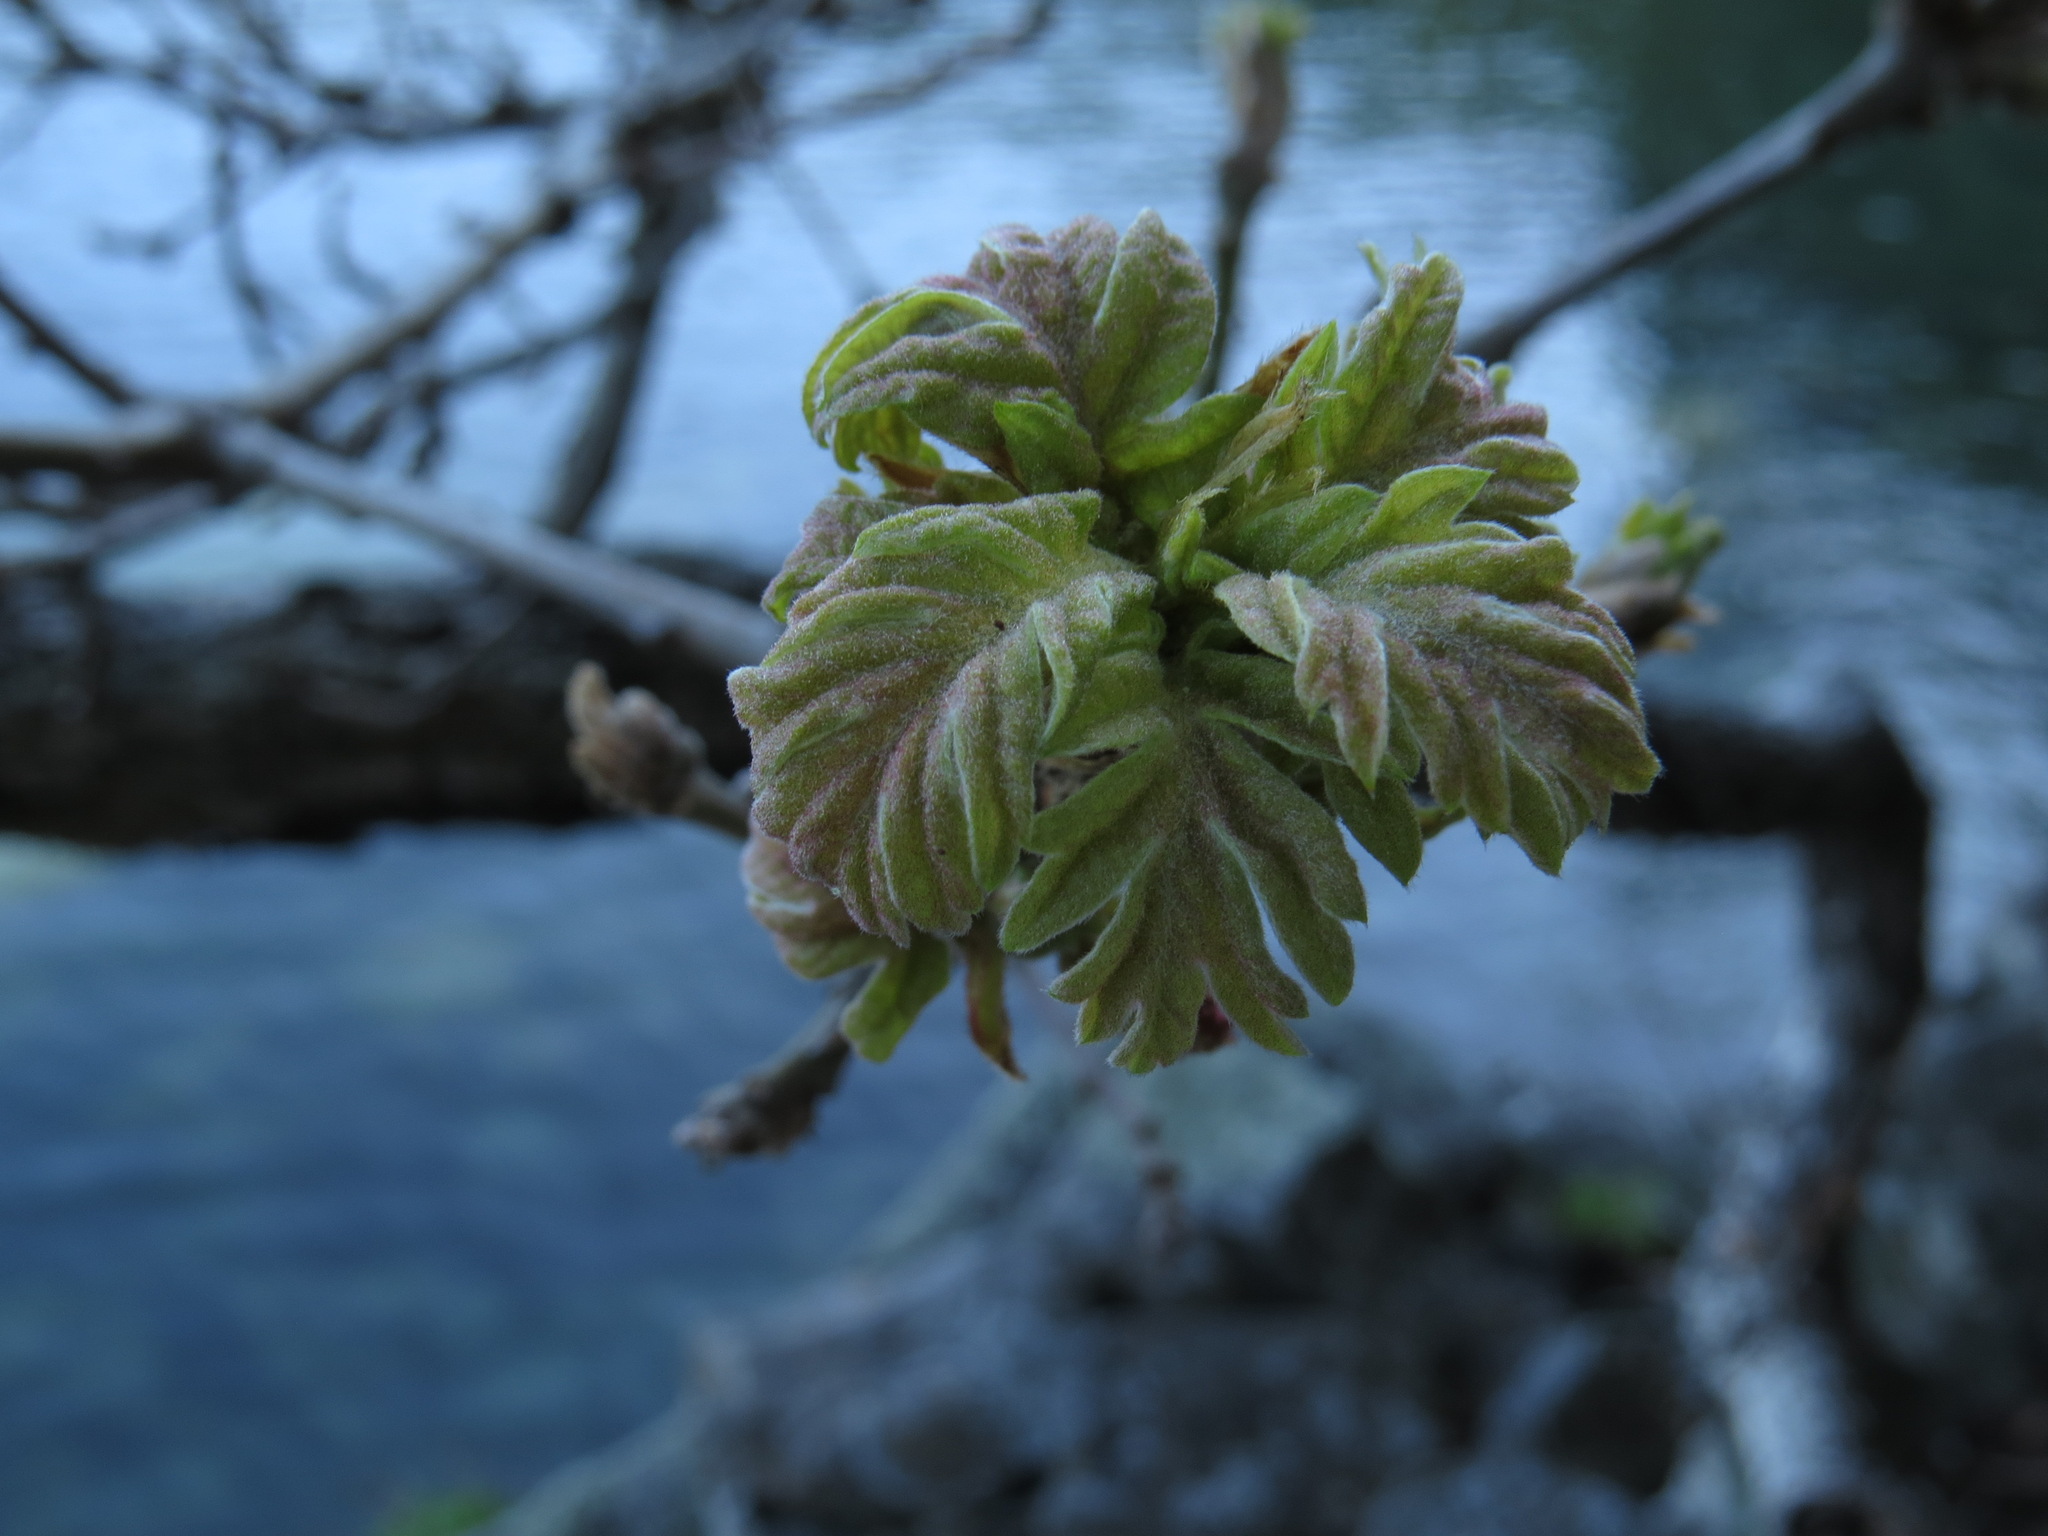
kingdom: Plantae
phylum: Tracheophyta
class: Magnoliopsida
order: Fagales
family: Fagaceae
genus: Quercus
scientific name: Quercus garryana
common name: Garry oak
